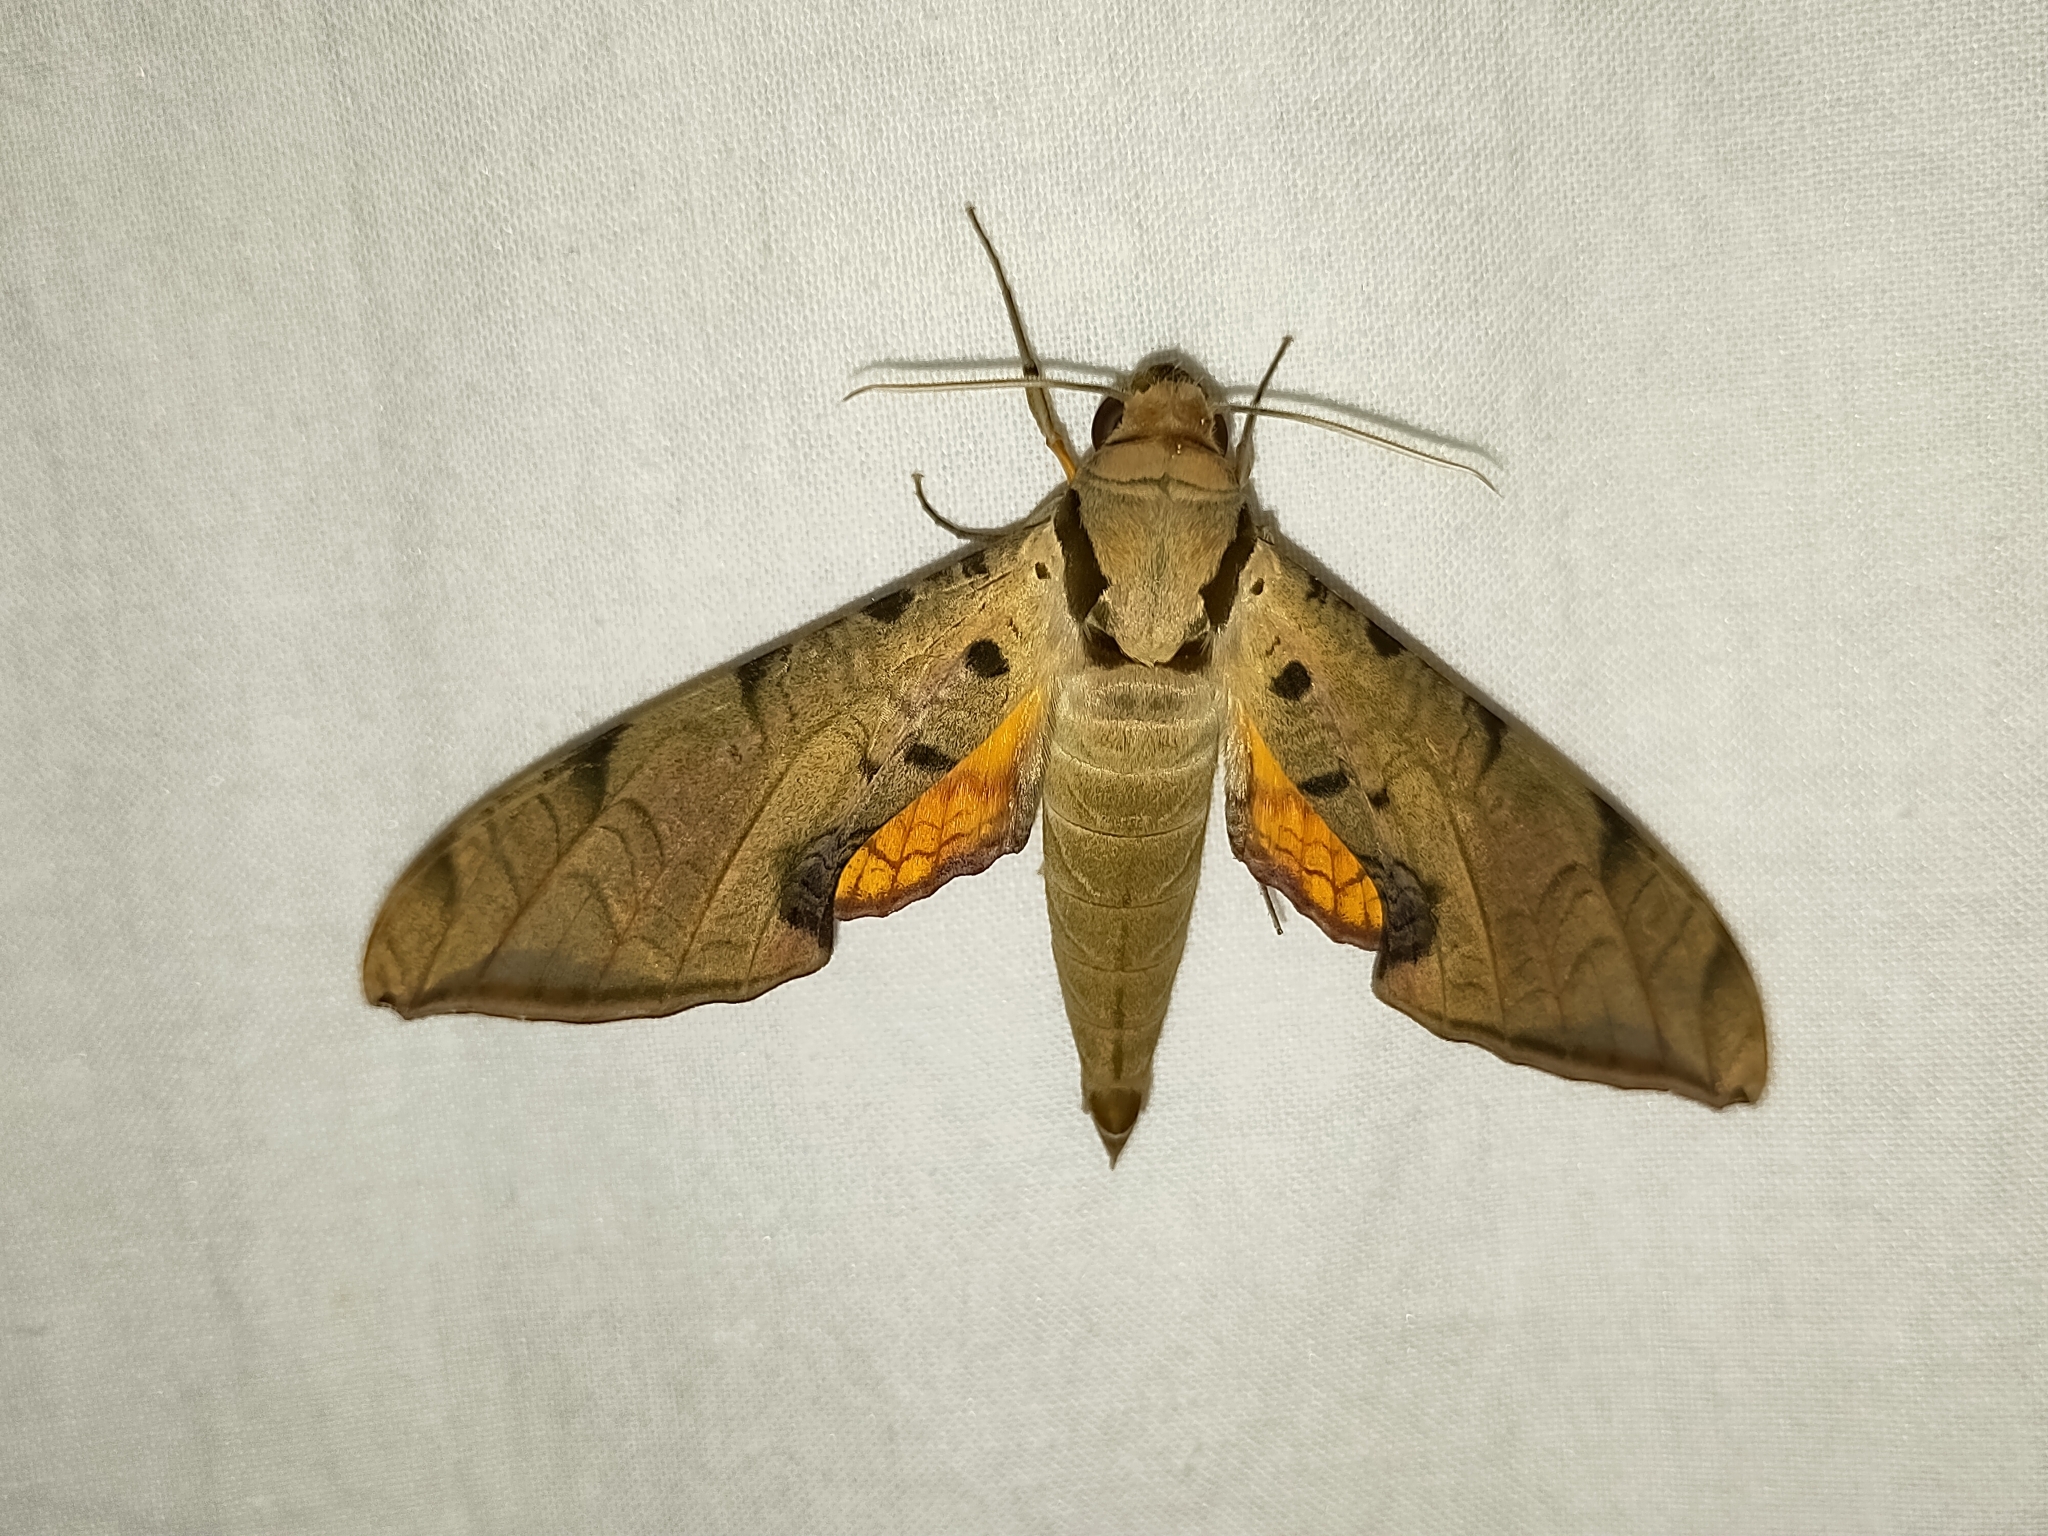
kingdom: Animalia
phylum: Arthropoda
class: Insecta
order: Lepidoptera
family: Sphingidae
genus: Protambulyx
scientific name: Protambulyx strigilis
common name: Streaked sphinx
